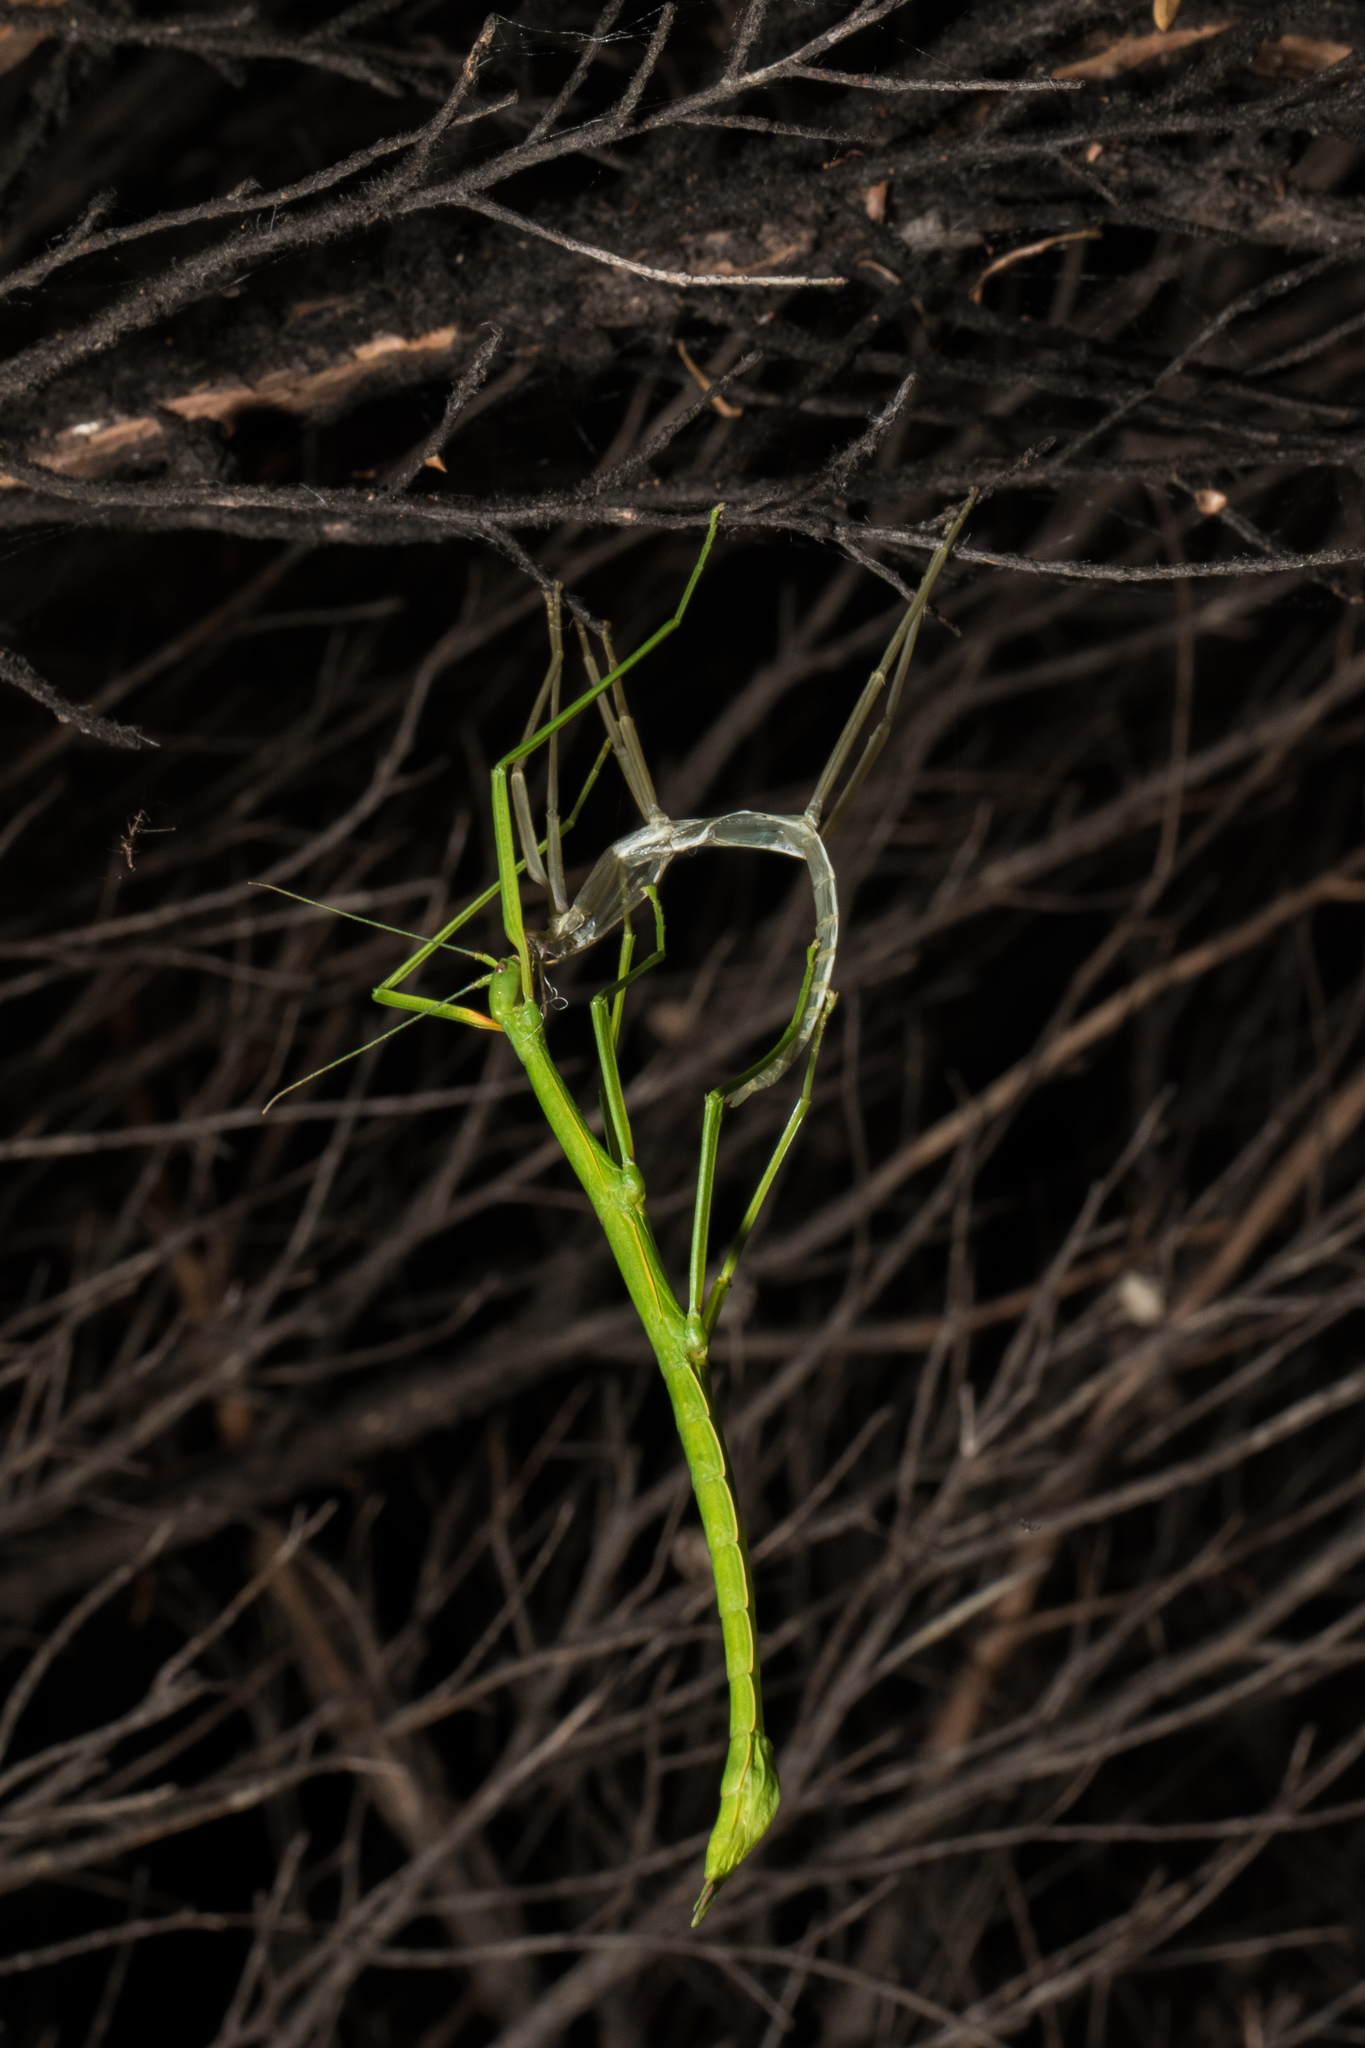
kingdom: Animalia
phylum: Arthropoda
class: Insecta
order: Phasmida
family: Phasmatidae
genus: Clitarchus
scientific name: Clitarchus hookeri
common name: Smooth stick insect
